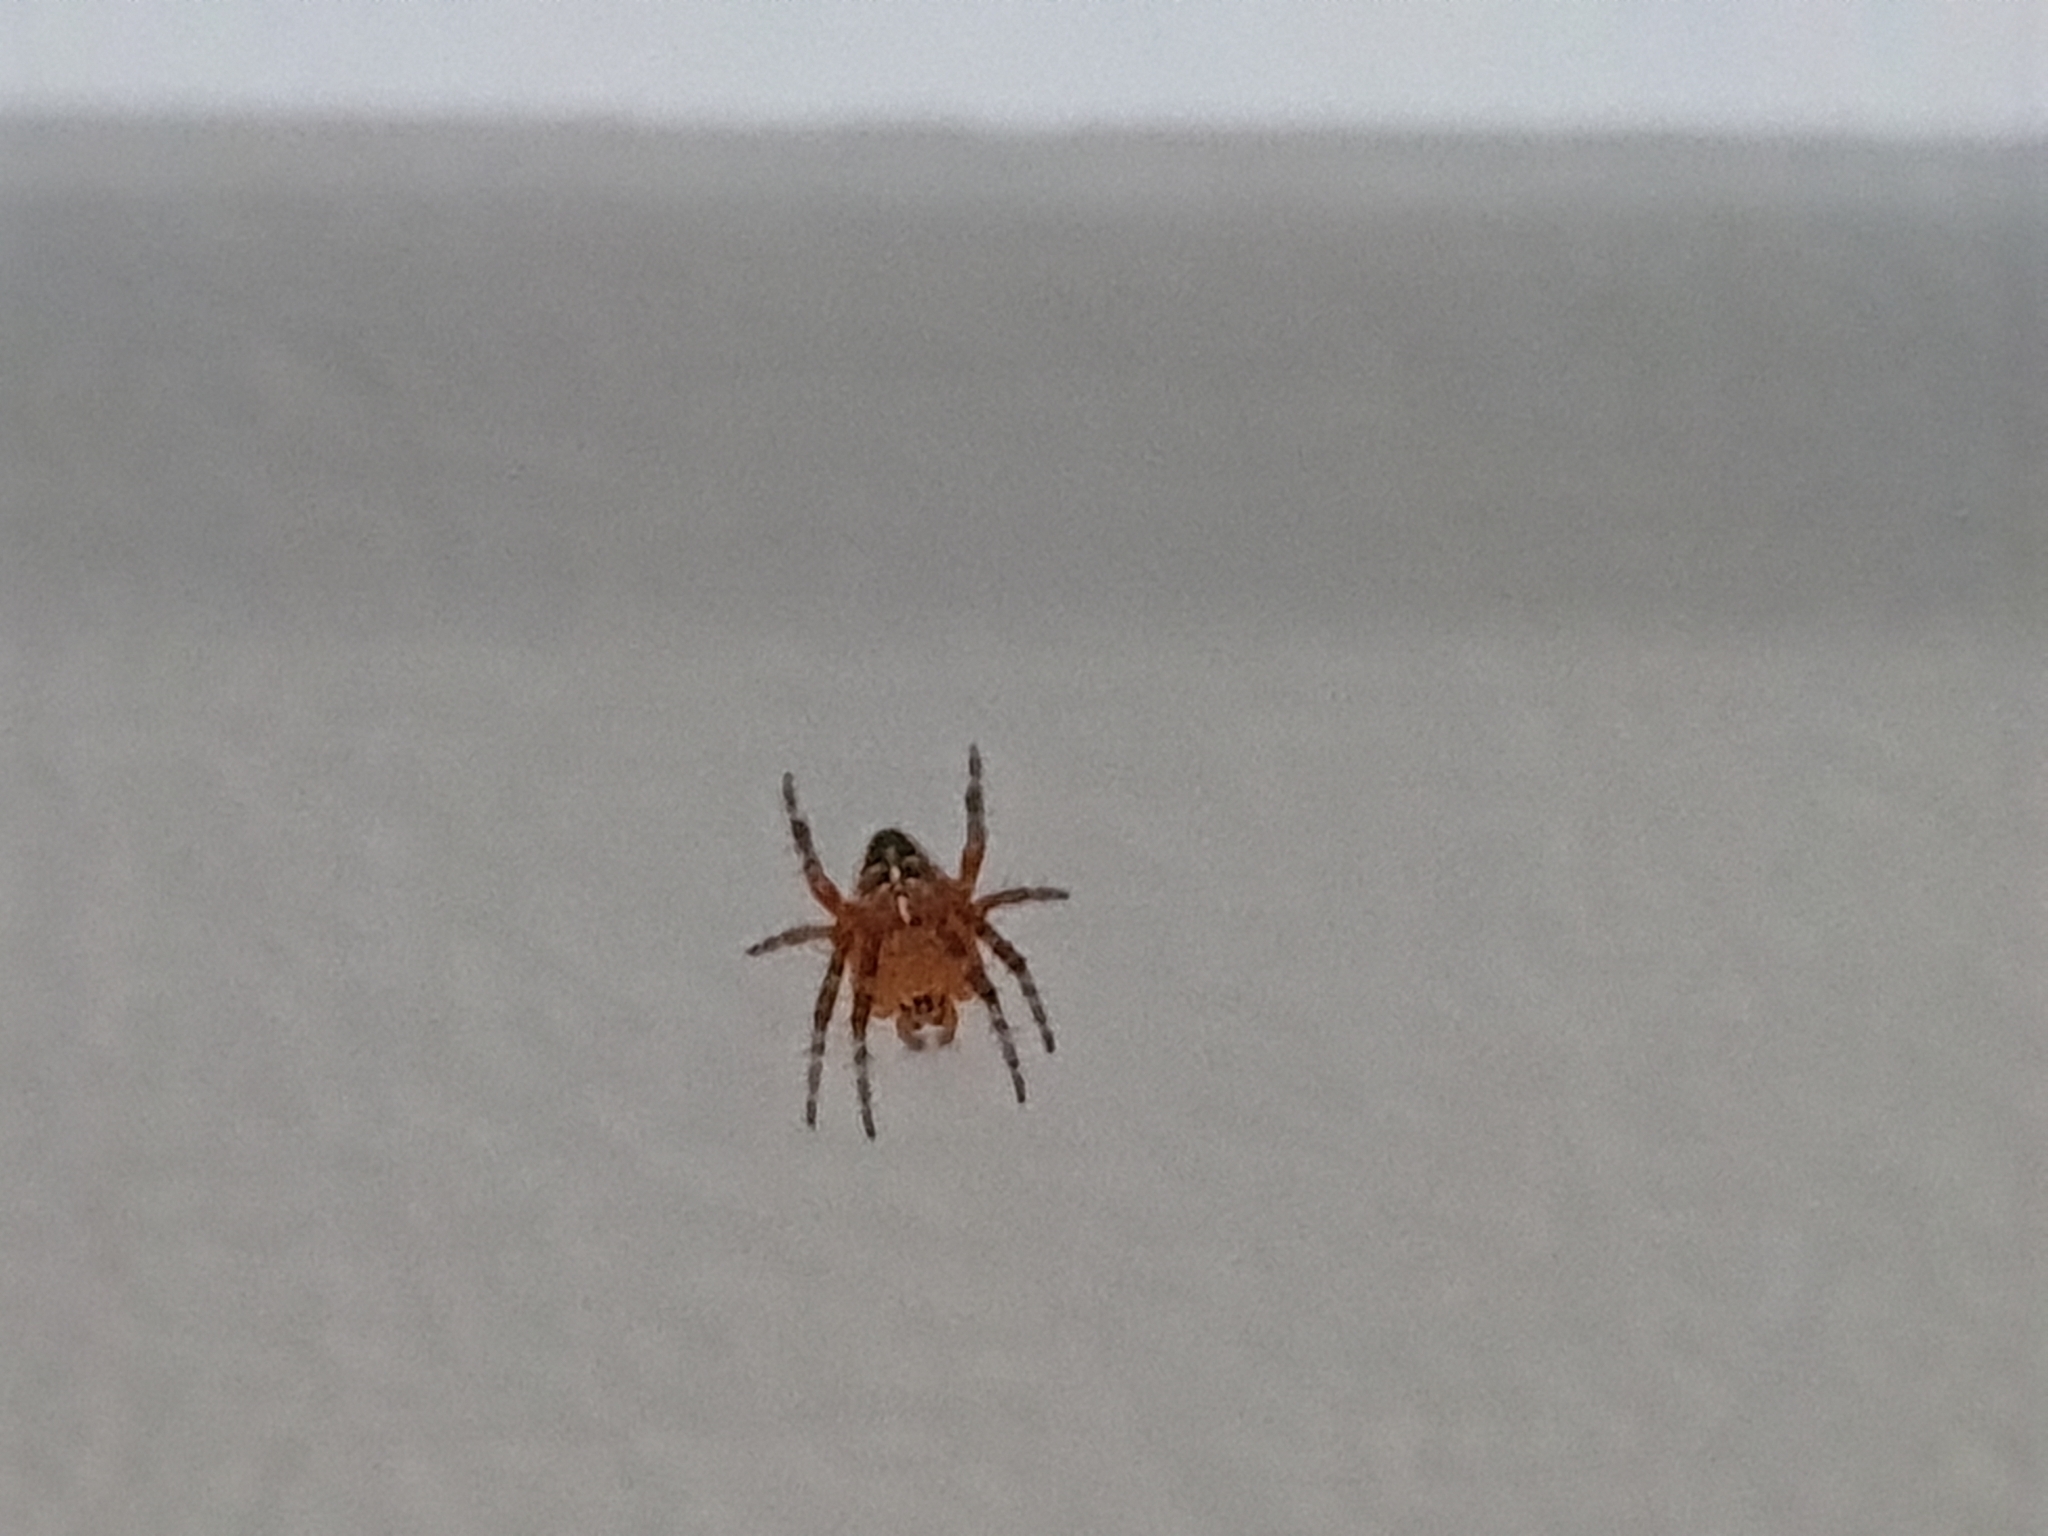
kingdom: Animalia
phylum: Arthropoda
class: Arachnida
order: Araneae
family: Araneidae
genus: Araneus
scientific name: Araneus diadematus
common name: Cross orbweaver
